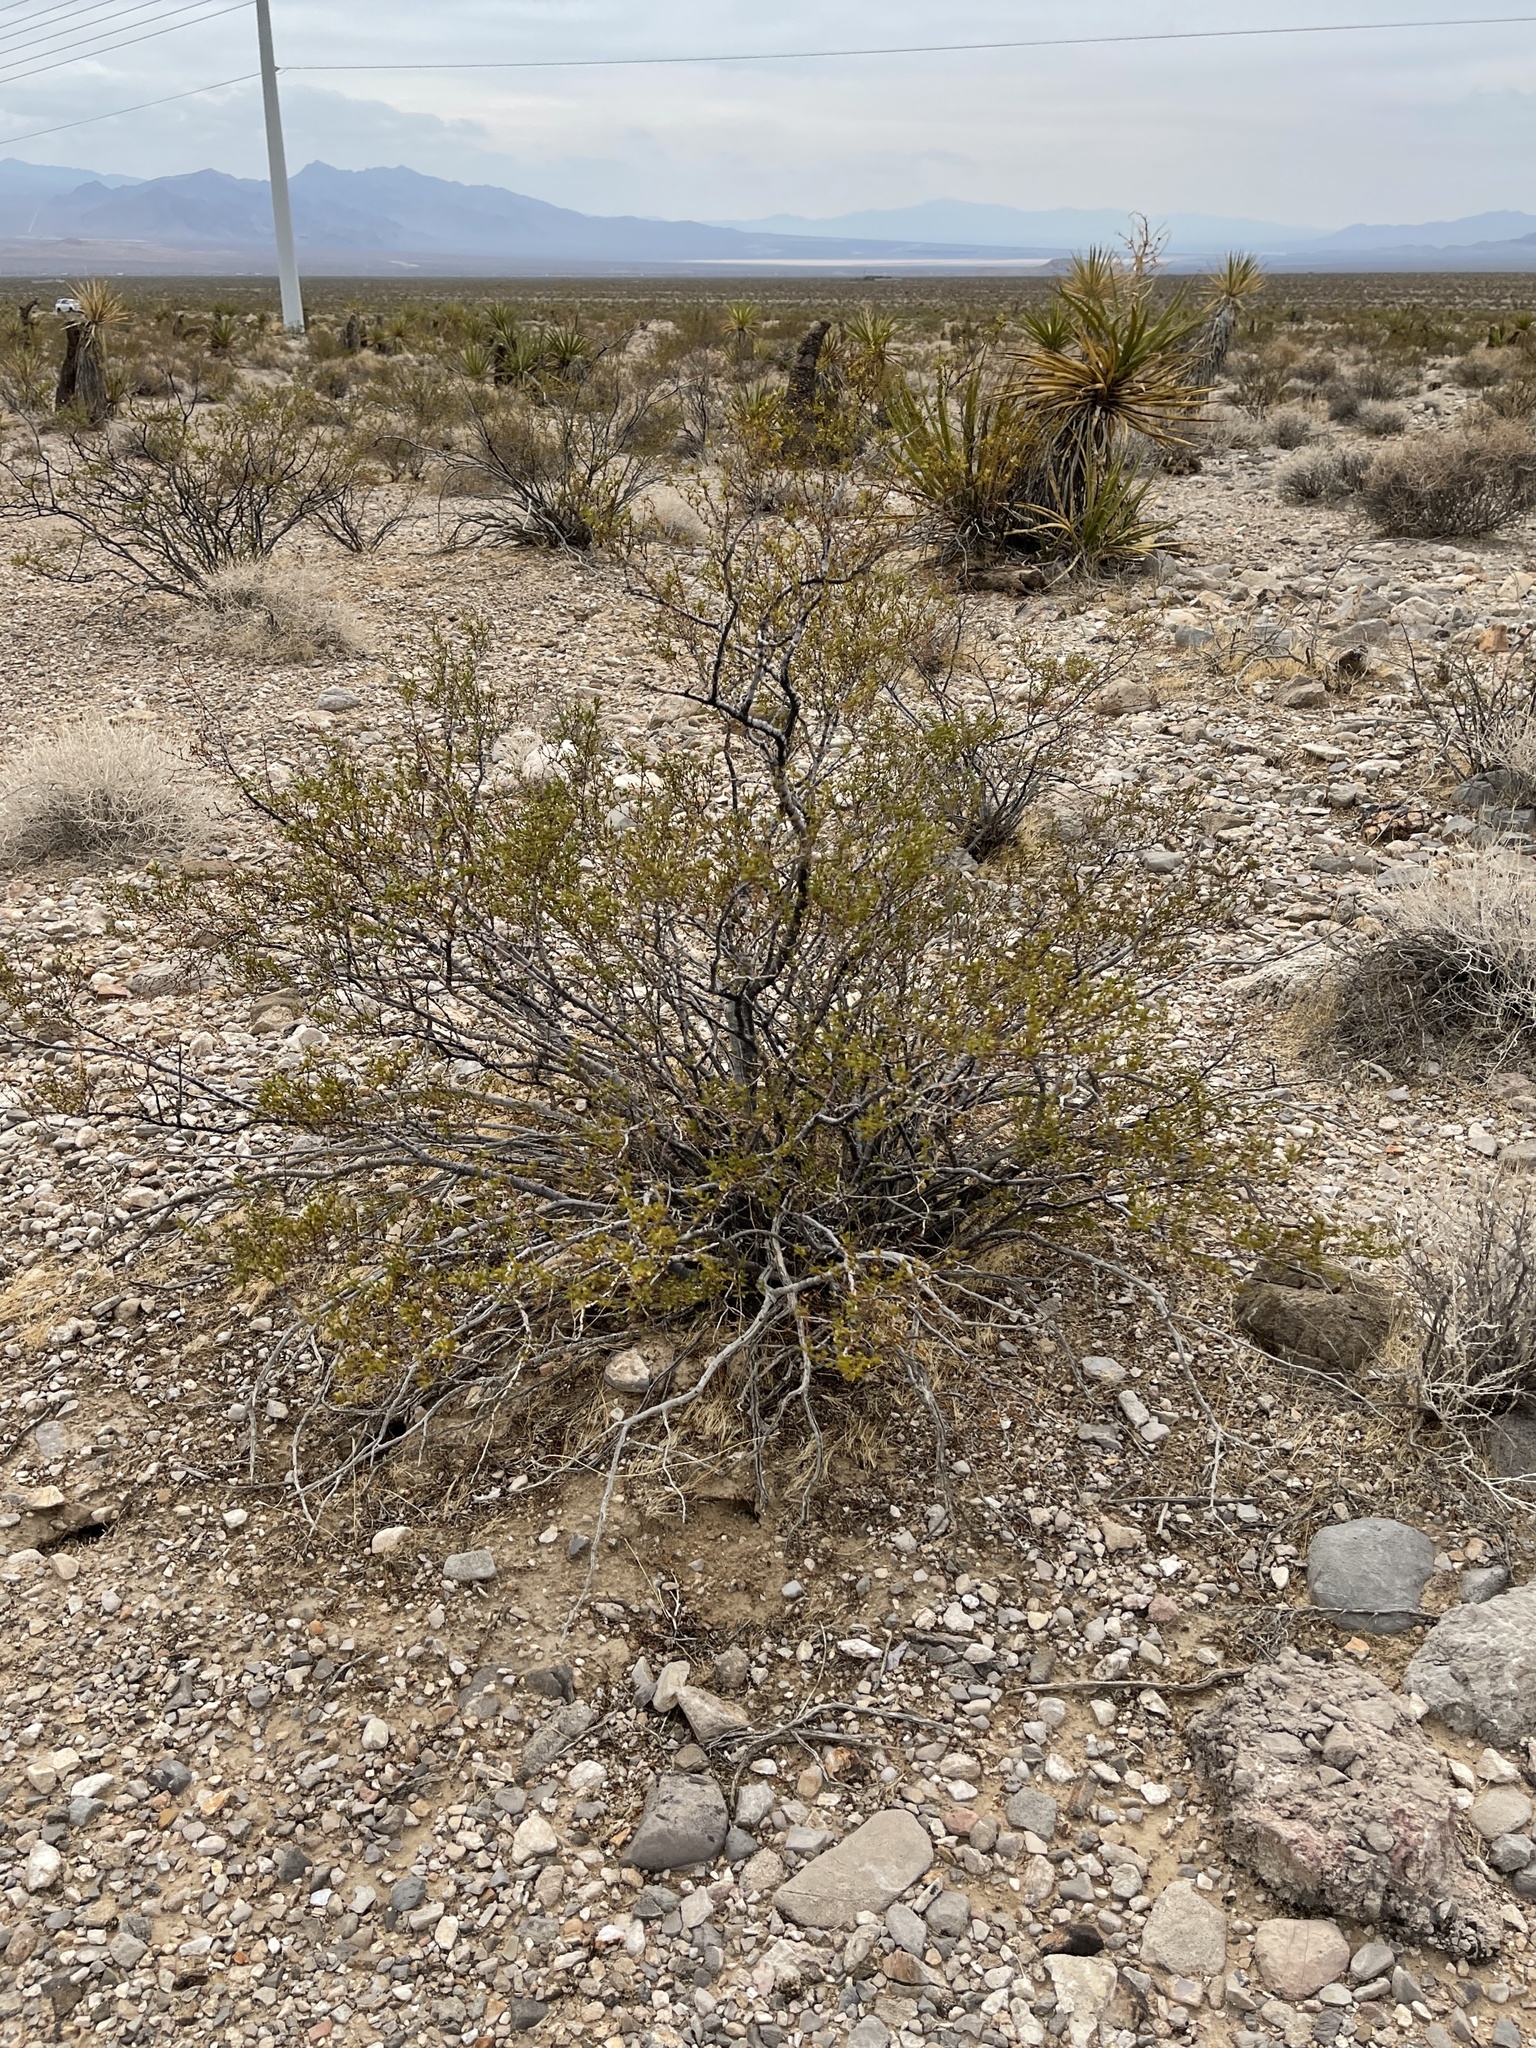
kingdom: Plantae
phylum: Tracheophyta
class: Magnoliopsida
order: Zygophyllales
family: Zygophyllaceae
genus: Larrea
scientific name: Larrea tridentata
